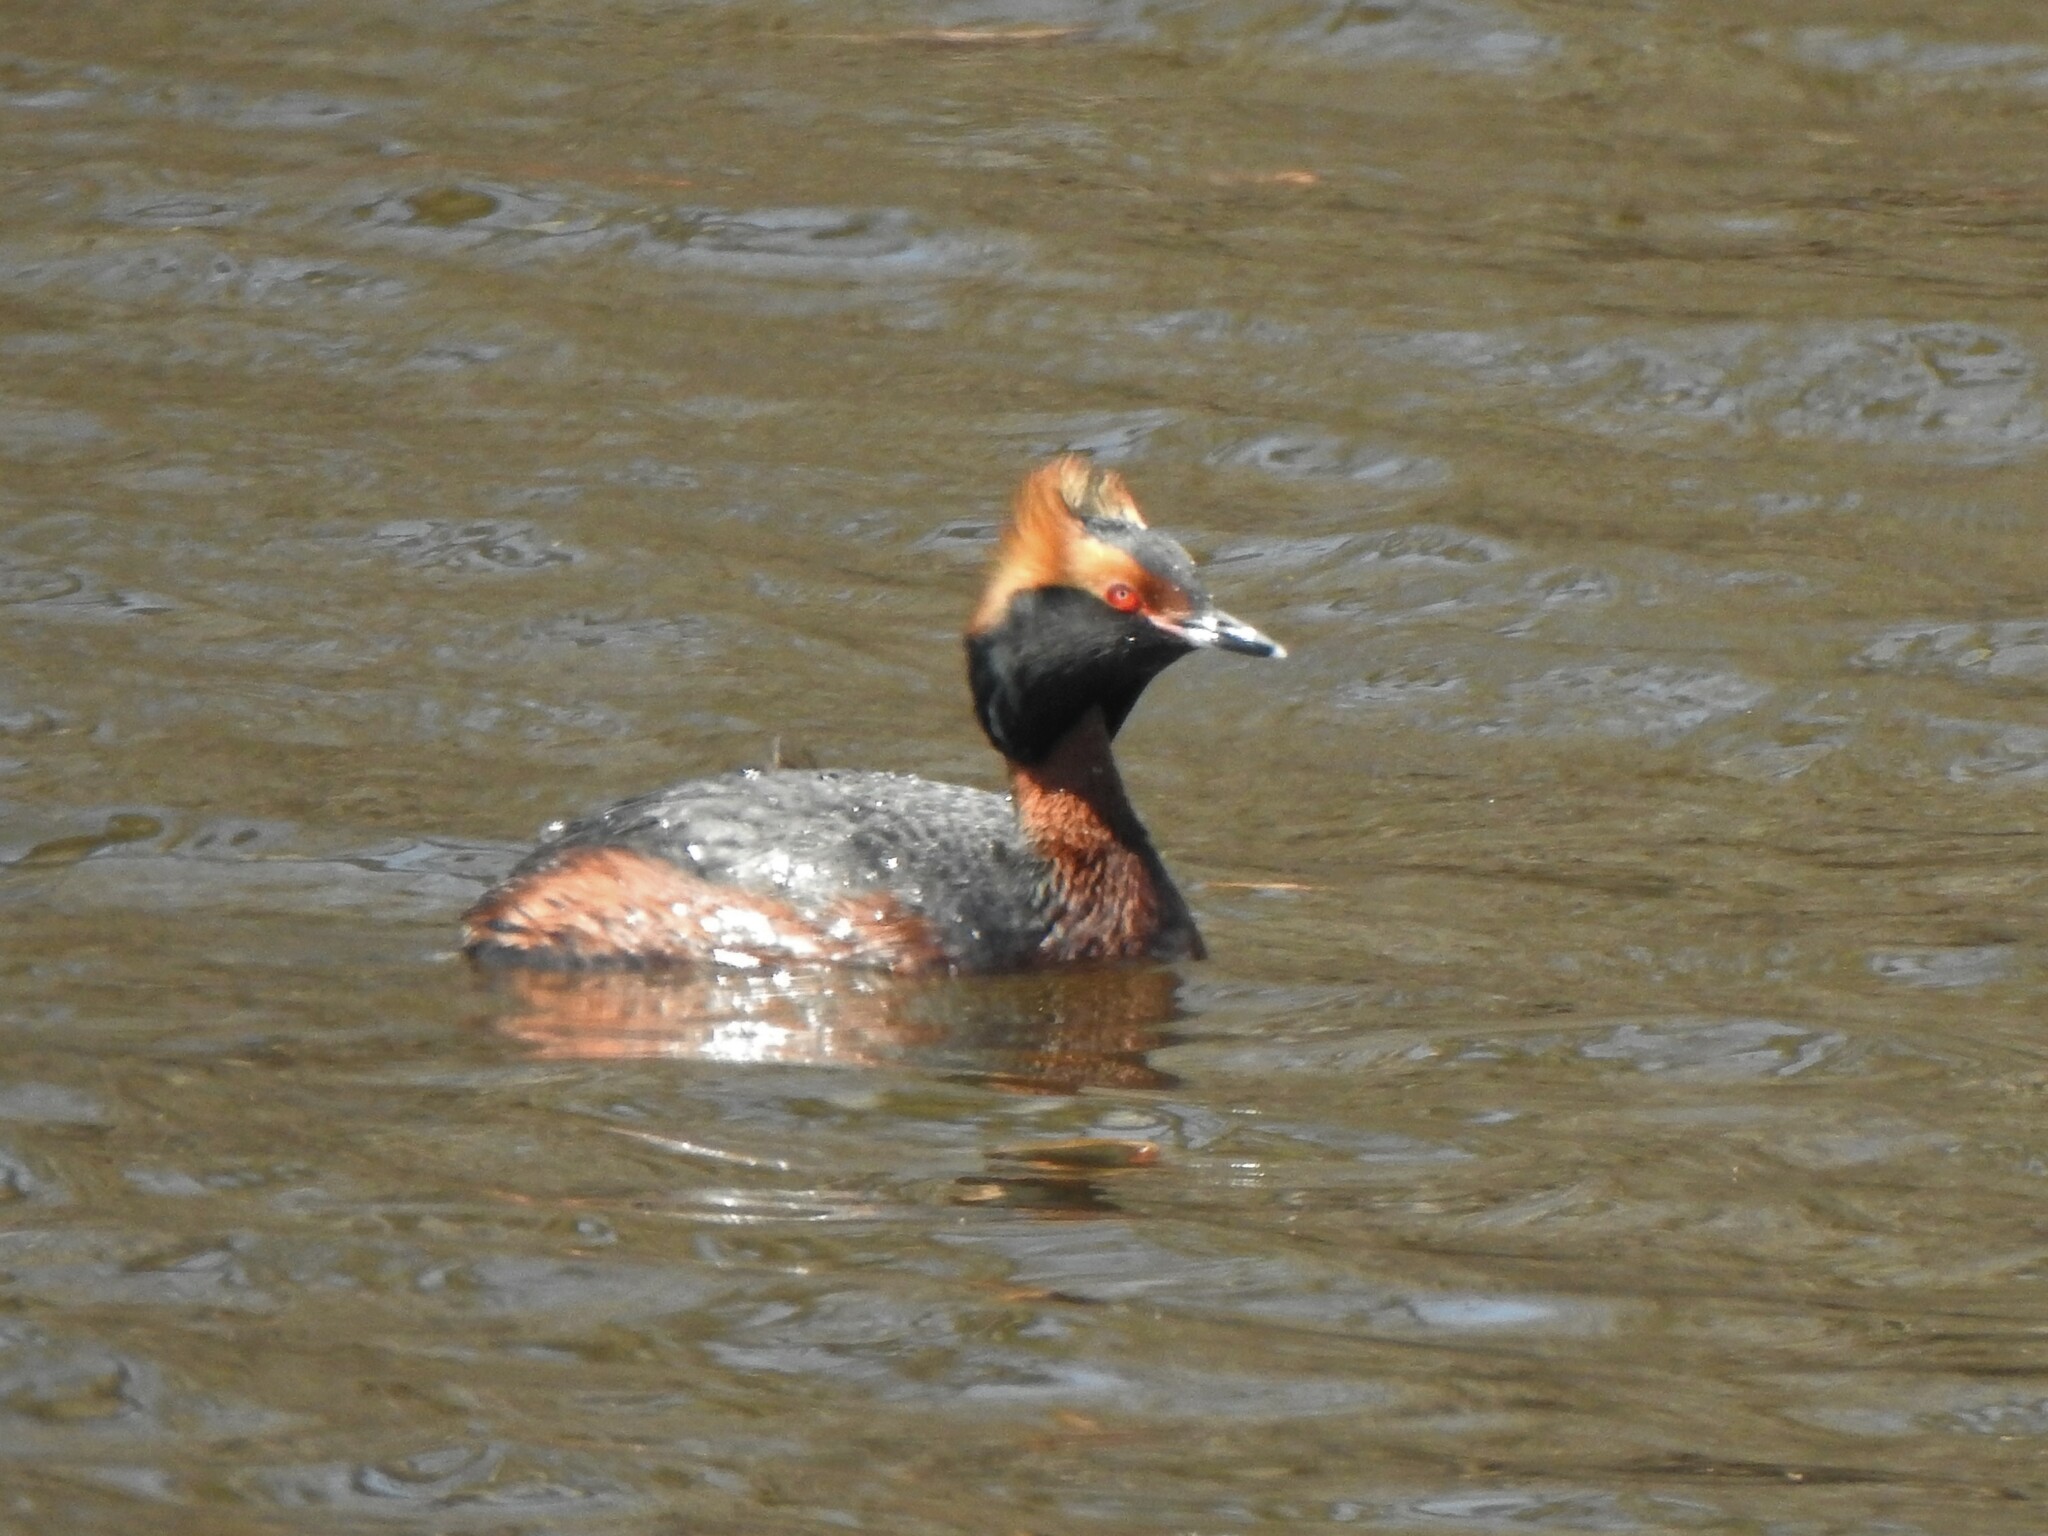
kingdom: Animalia
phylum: Chordata
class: Aves
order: Podicipediformes
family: Podicipedidae
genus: Podiceps
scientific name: Podiceps auritus
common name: Horned grebe
